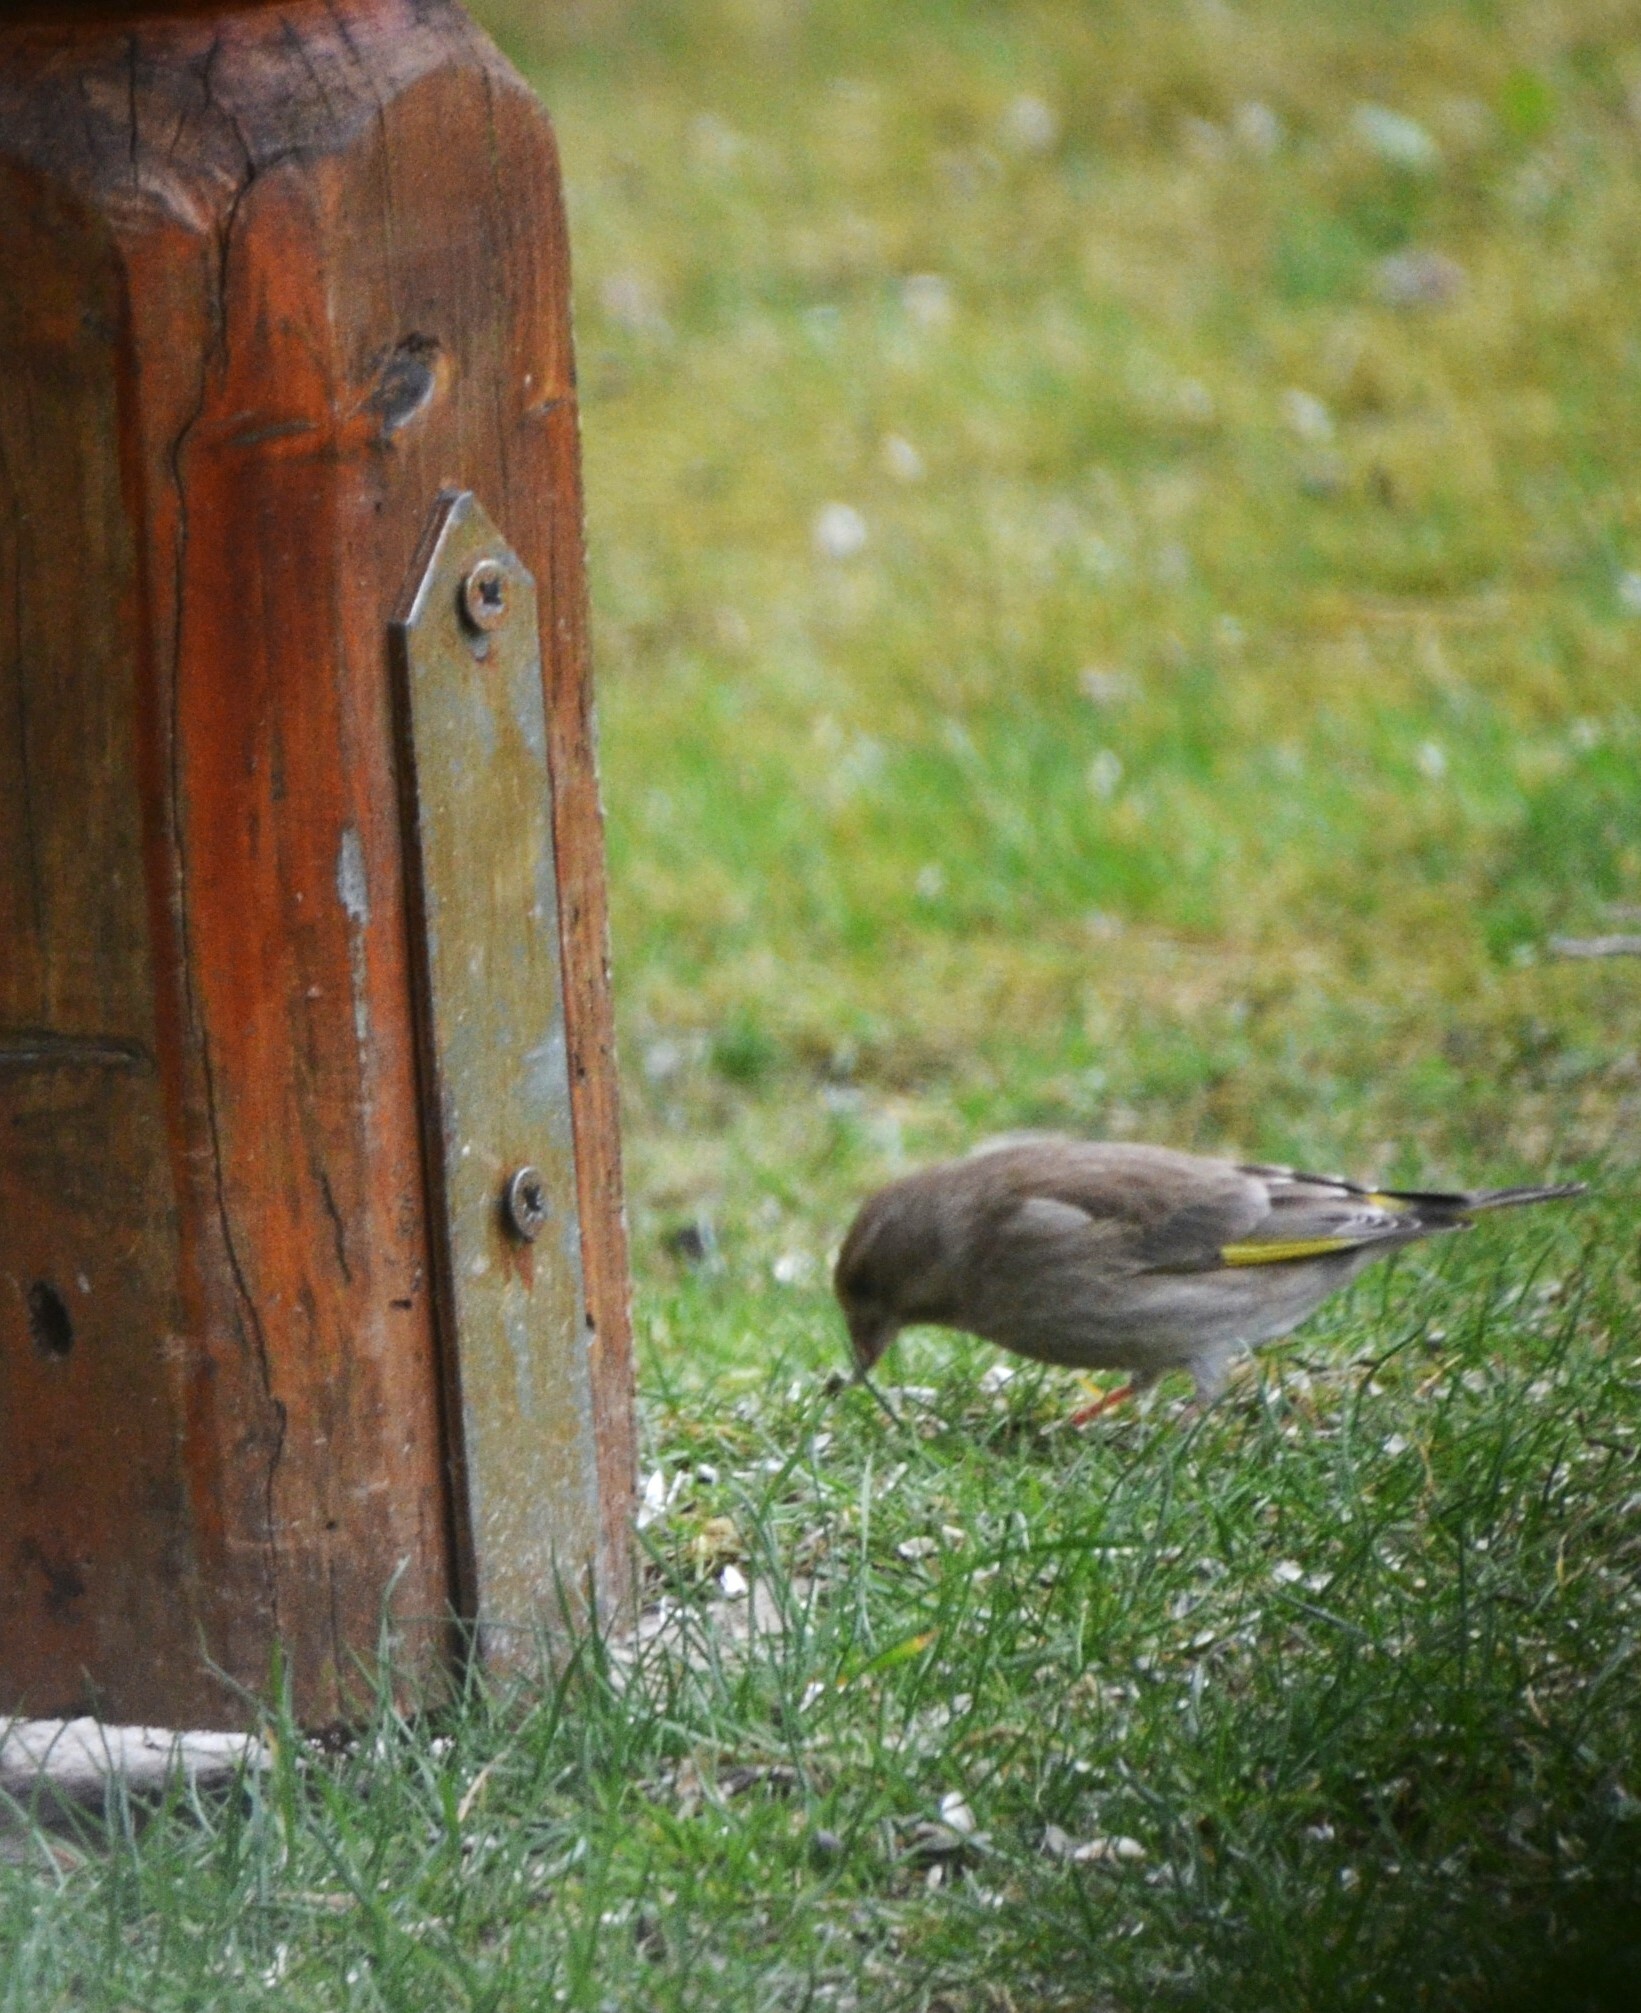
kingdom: Plantae
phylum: Tracheophyta
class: Liliopsida
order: Poales
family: Poaceae
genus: Chloris
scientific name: Chloris chloris
